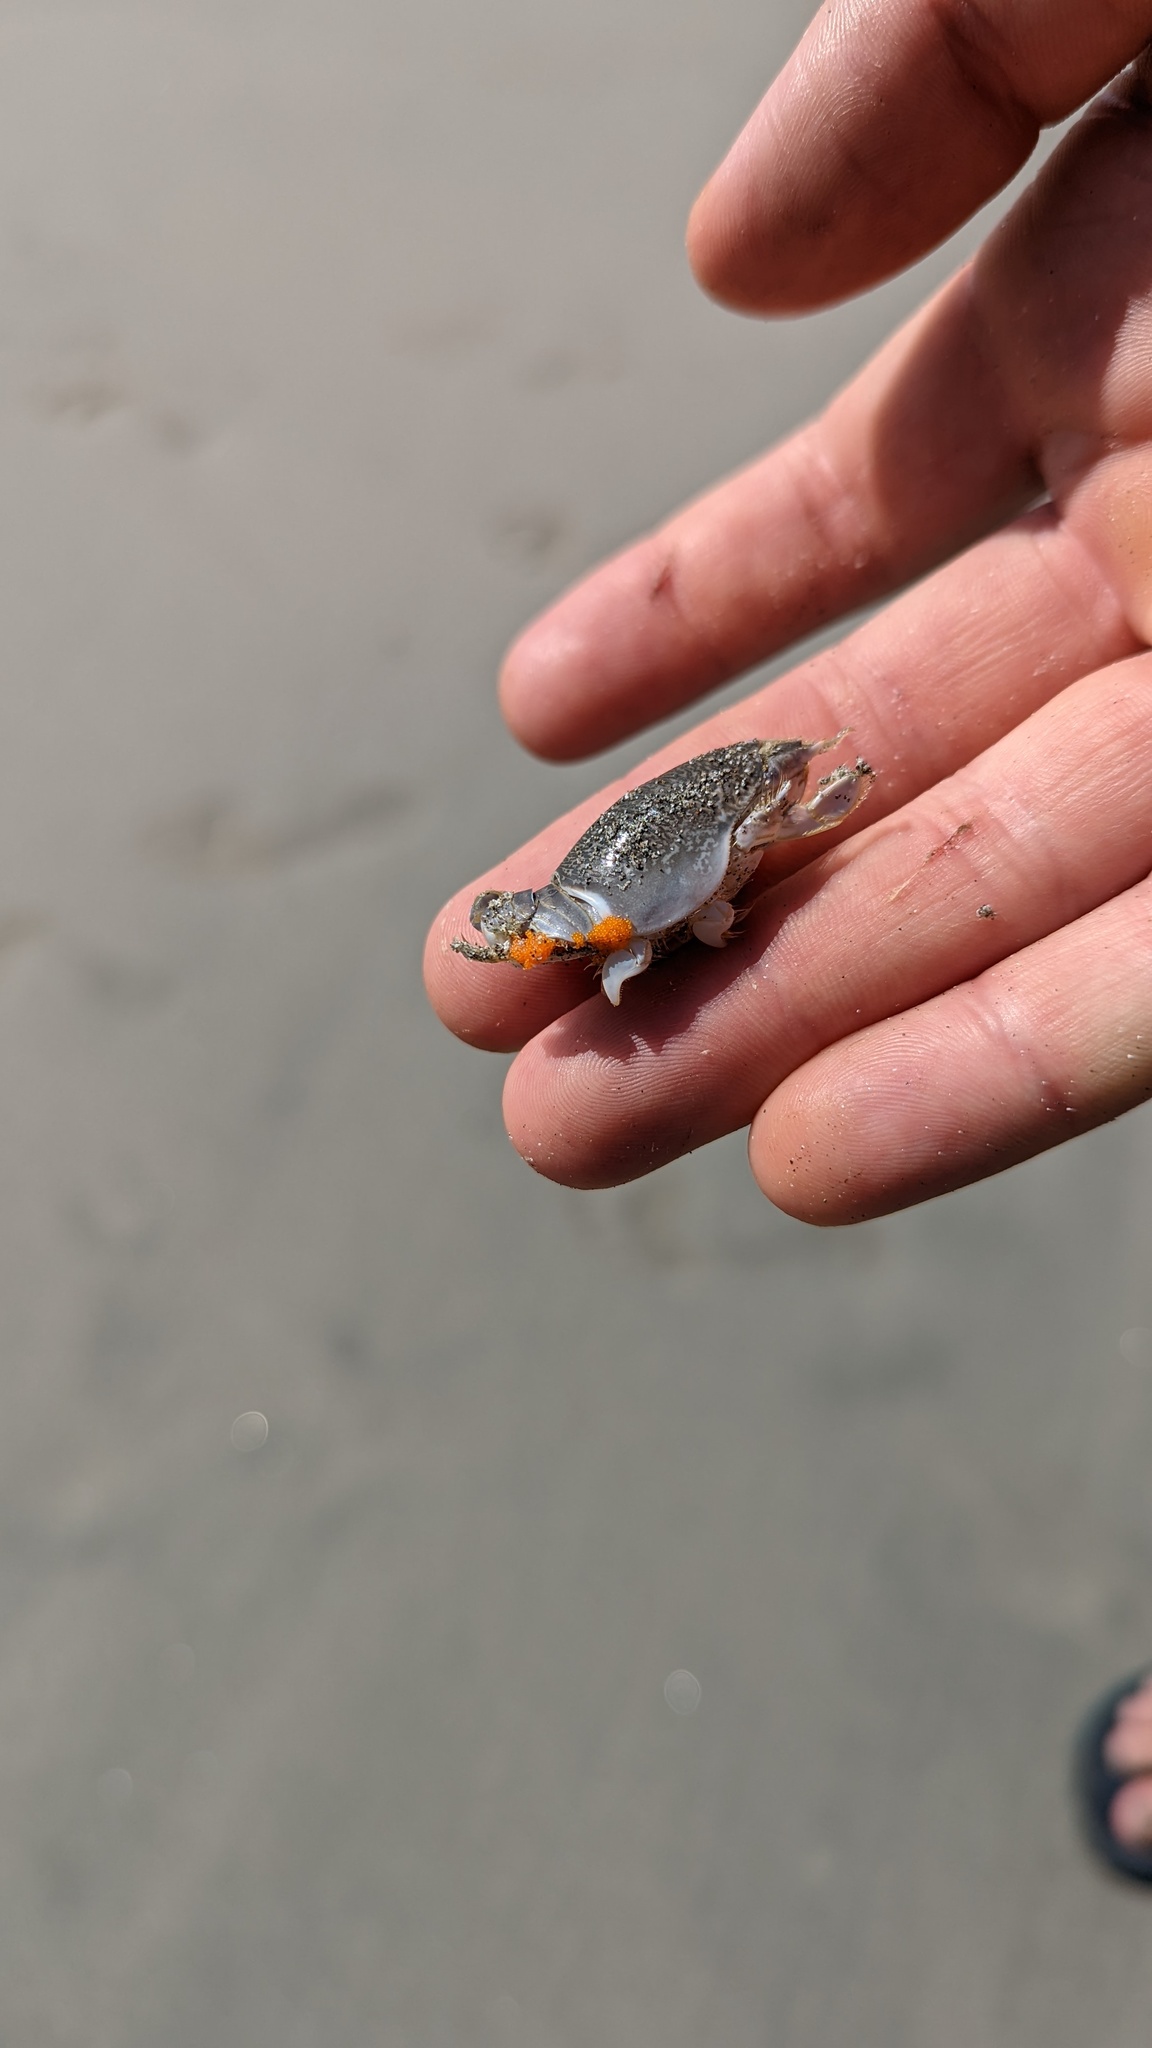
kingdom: Animalia
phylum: Arthropoda
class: Malacostraca
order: Decapoda
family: Hippidae
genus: Emerita
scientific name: Emerita rathbunae
